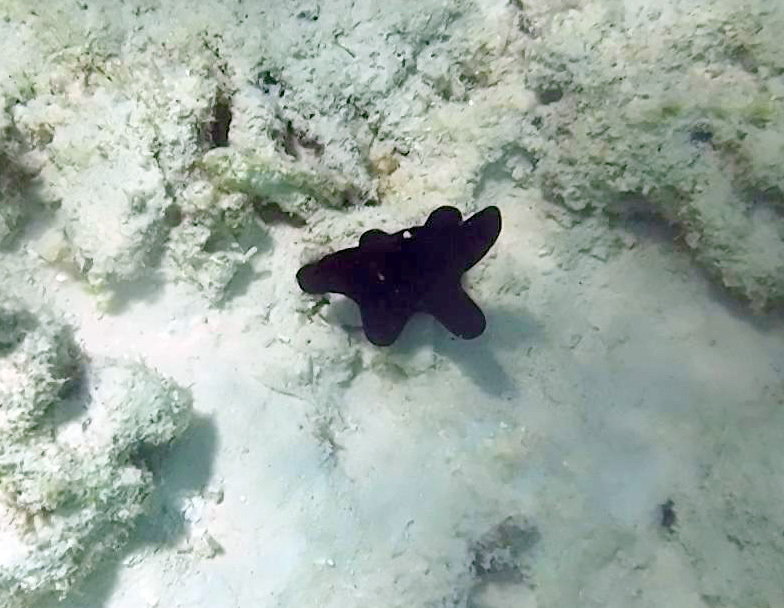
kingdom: Animalia
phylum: Mollusca
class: Gastropoda
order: Littorinimorpha
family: Velutinidae
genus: Coriocella
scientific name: Coriocella hibyae
